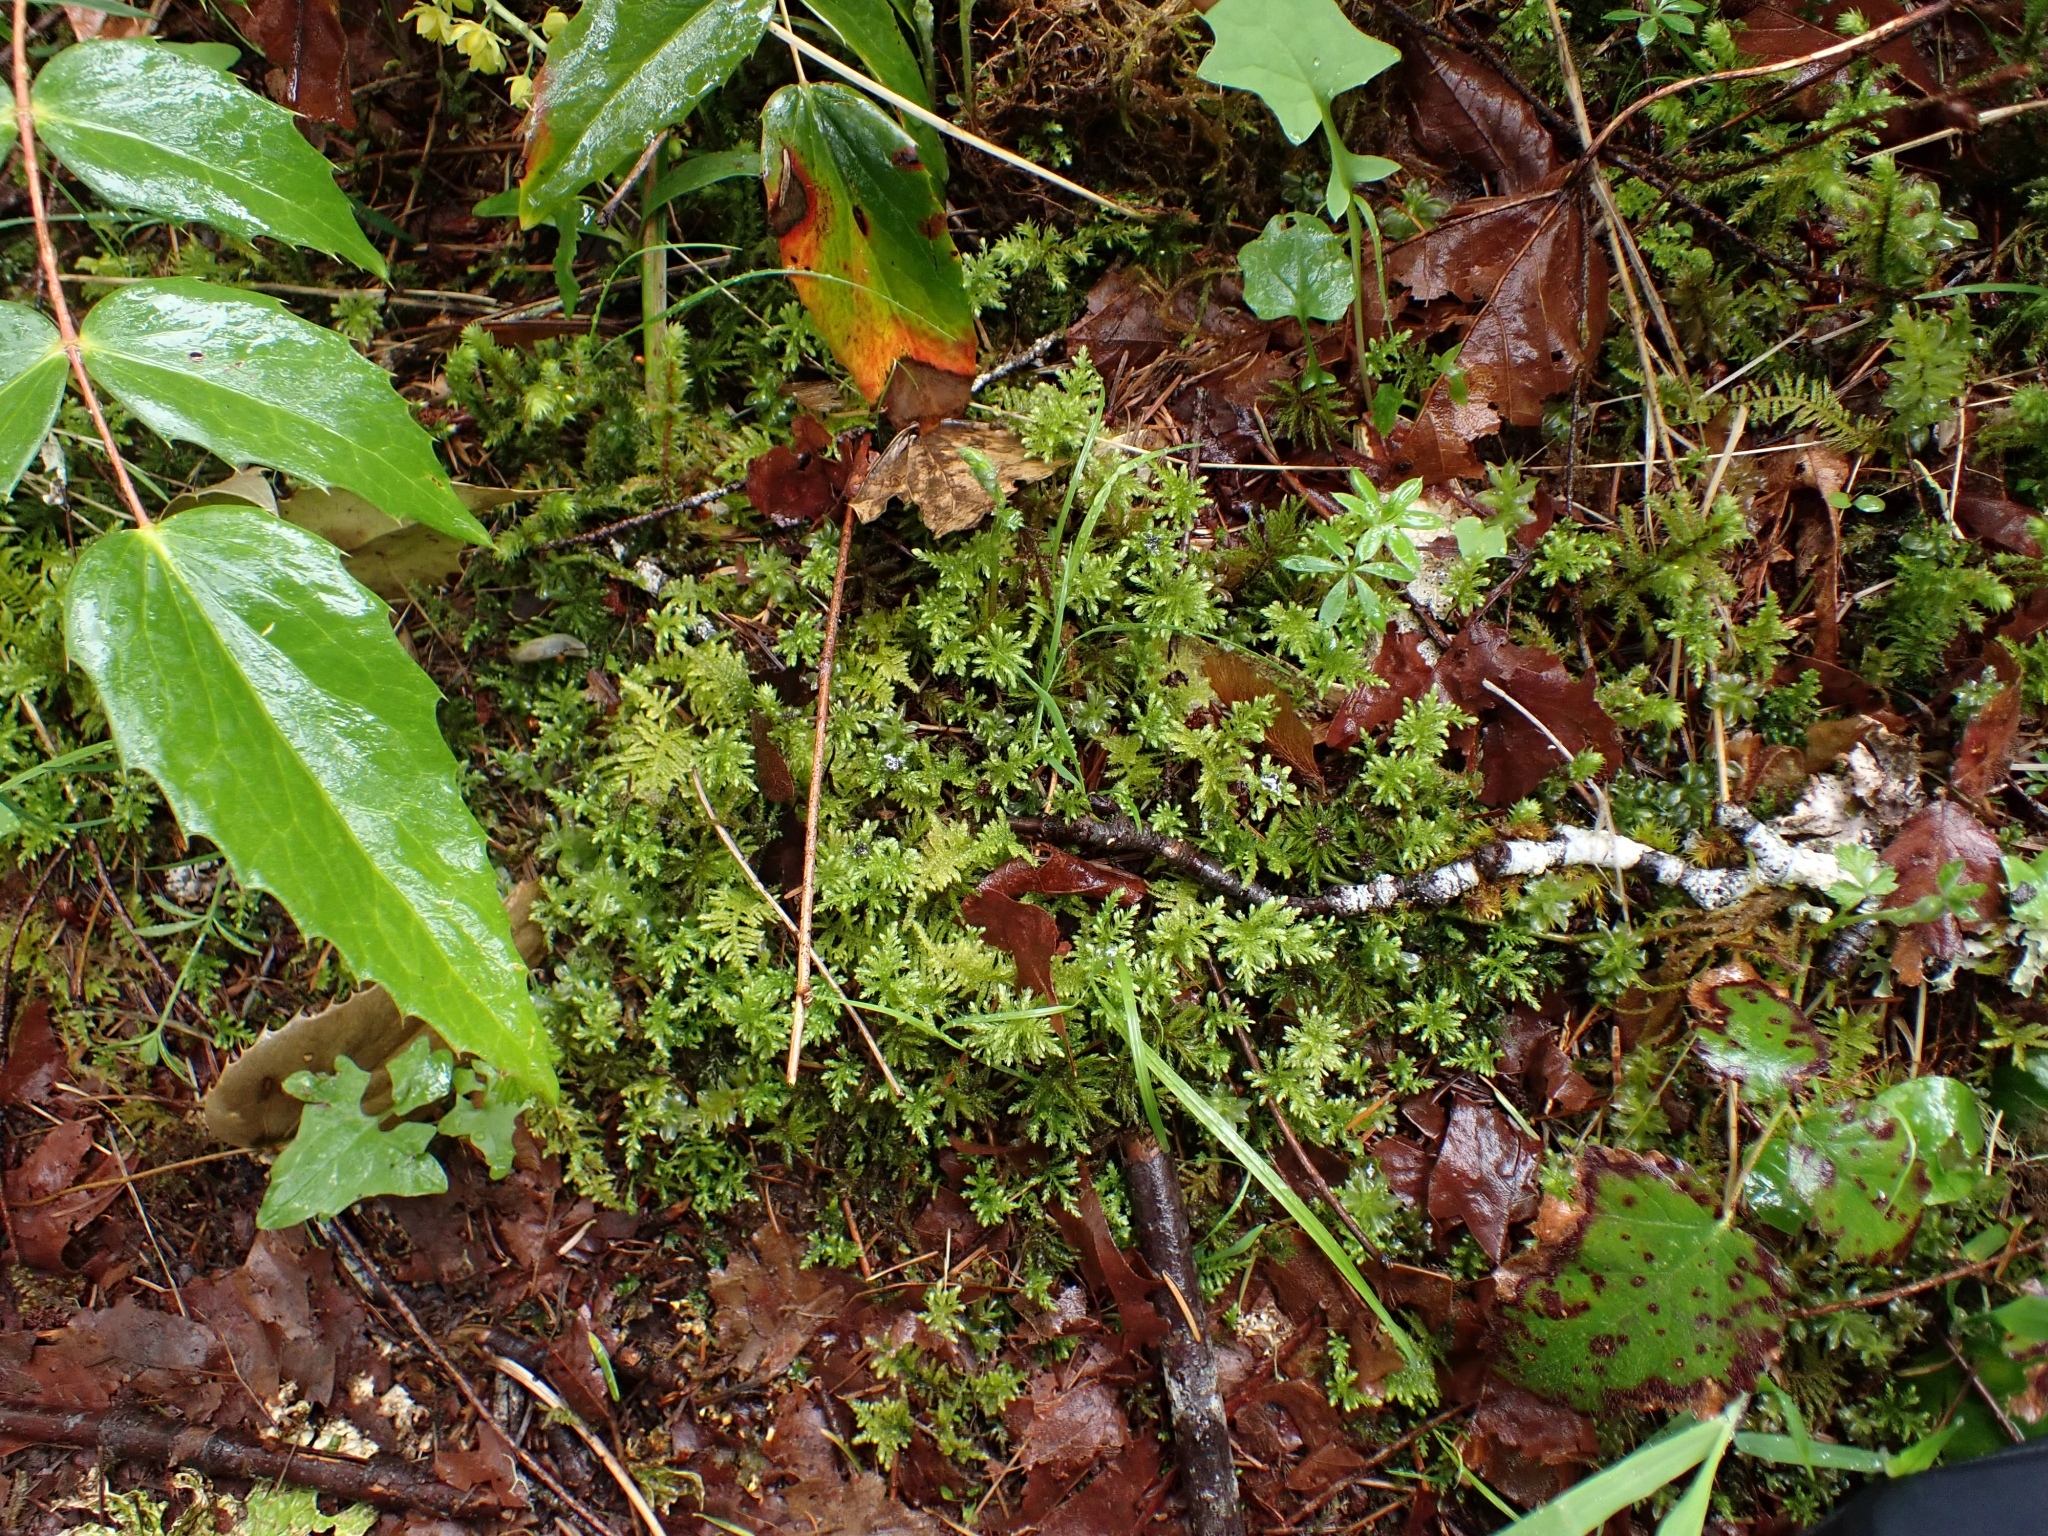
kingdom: Plantae
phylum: Bryophyta
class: Bryopsida
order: Bryales
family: Mniaceae
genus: Leucolepis
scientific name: Leucolepis acanthoneura
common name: Leucolepis umbrella moss
